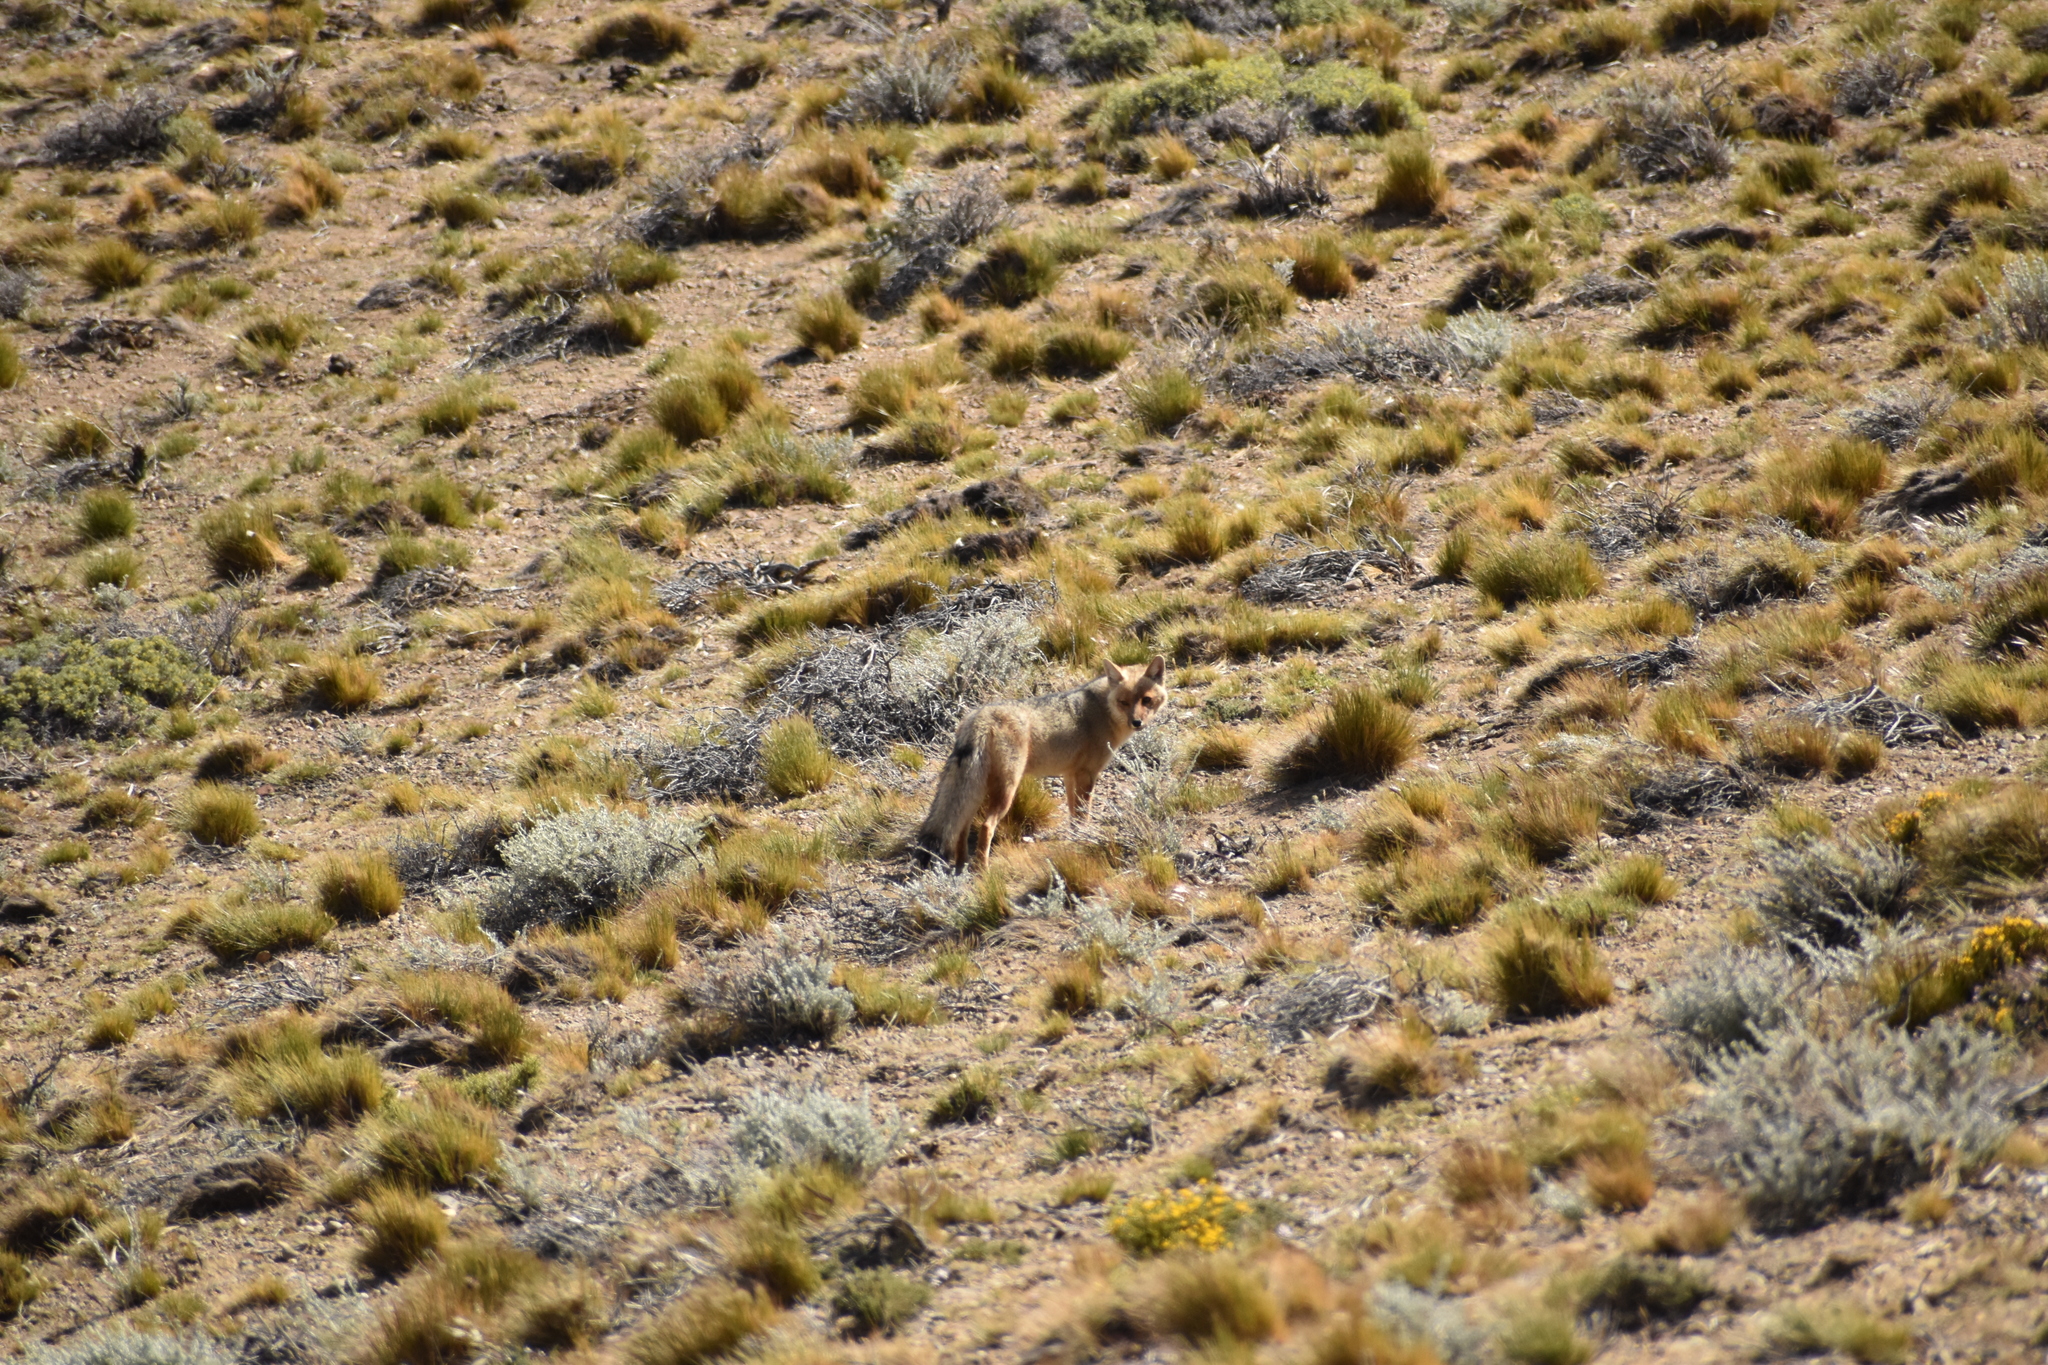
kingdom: Animalia
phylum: Chordata
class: Mammalia
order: Carnivora
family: Canidae
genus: Lycalopex
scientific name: Lycalopex culpaeus
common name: Culpeo
